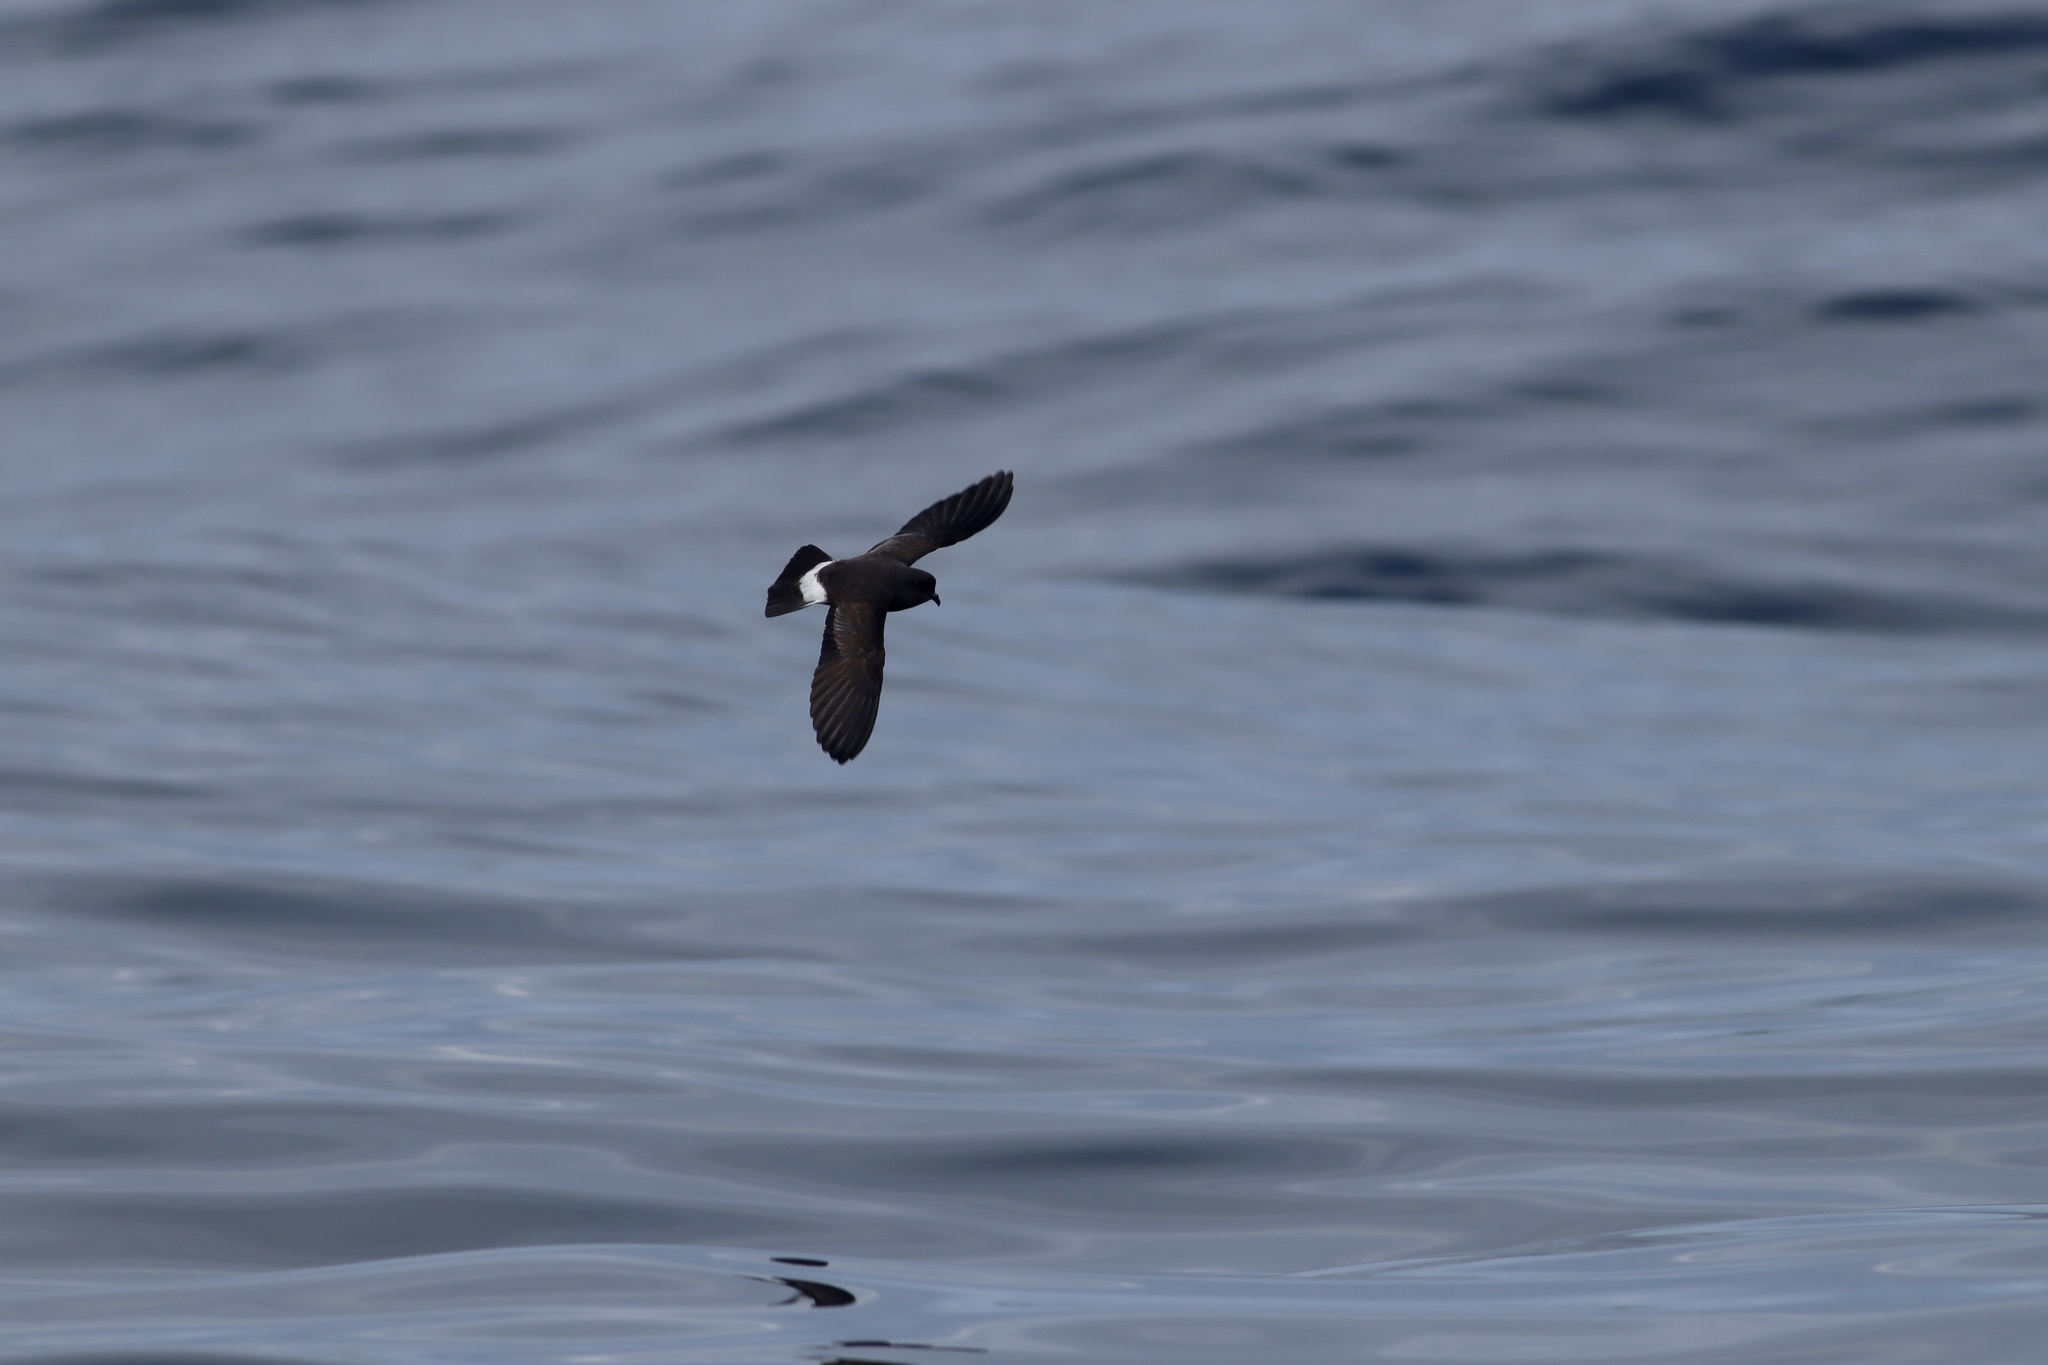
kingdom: Animalia
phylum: Chordata
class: Aves
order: Procellariiformes
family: Hydrobatidae
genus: Hydrobates
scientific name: Hydrobates pelagicus
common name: European storm-petrel
